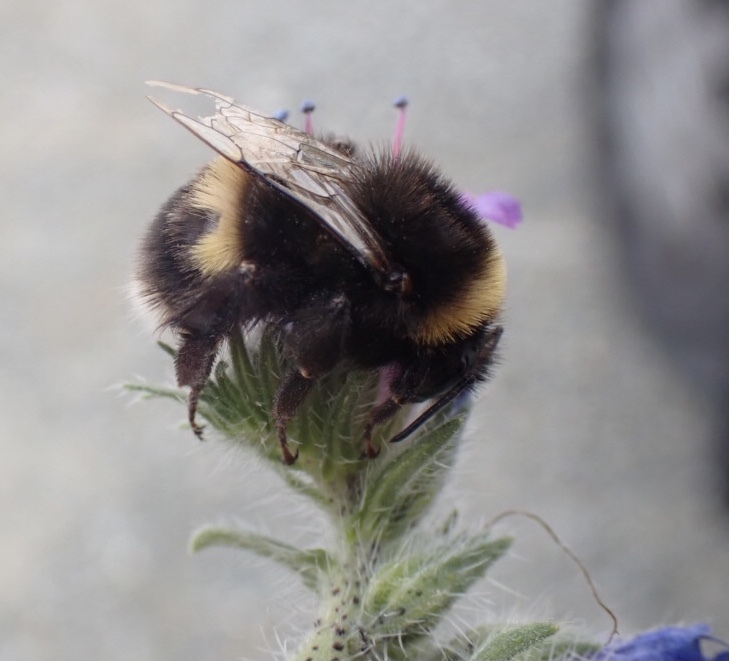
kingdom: Animalia
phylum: Arthropoda
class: Insecta
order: Hymenoptera
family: Apidae
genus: Bombus
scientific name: Bombus terrestris
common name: Buff-tailed bumblebee
